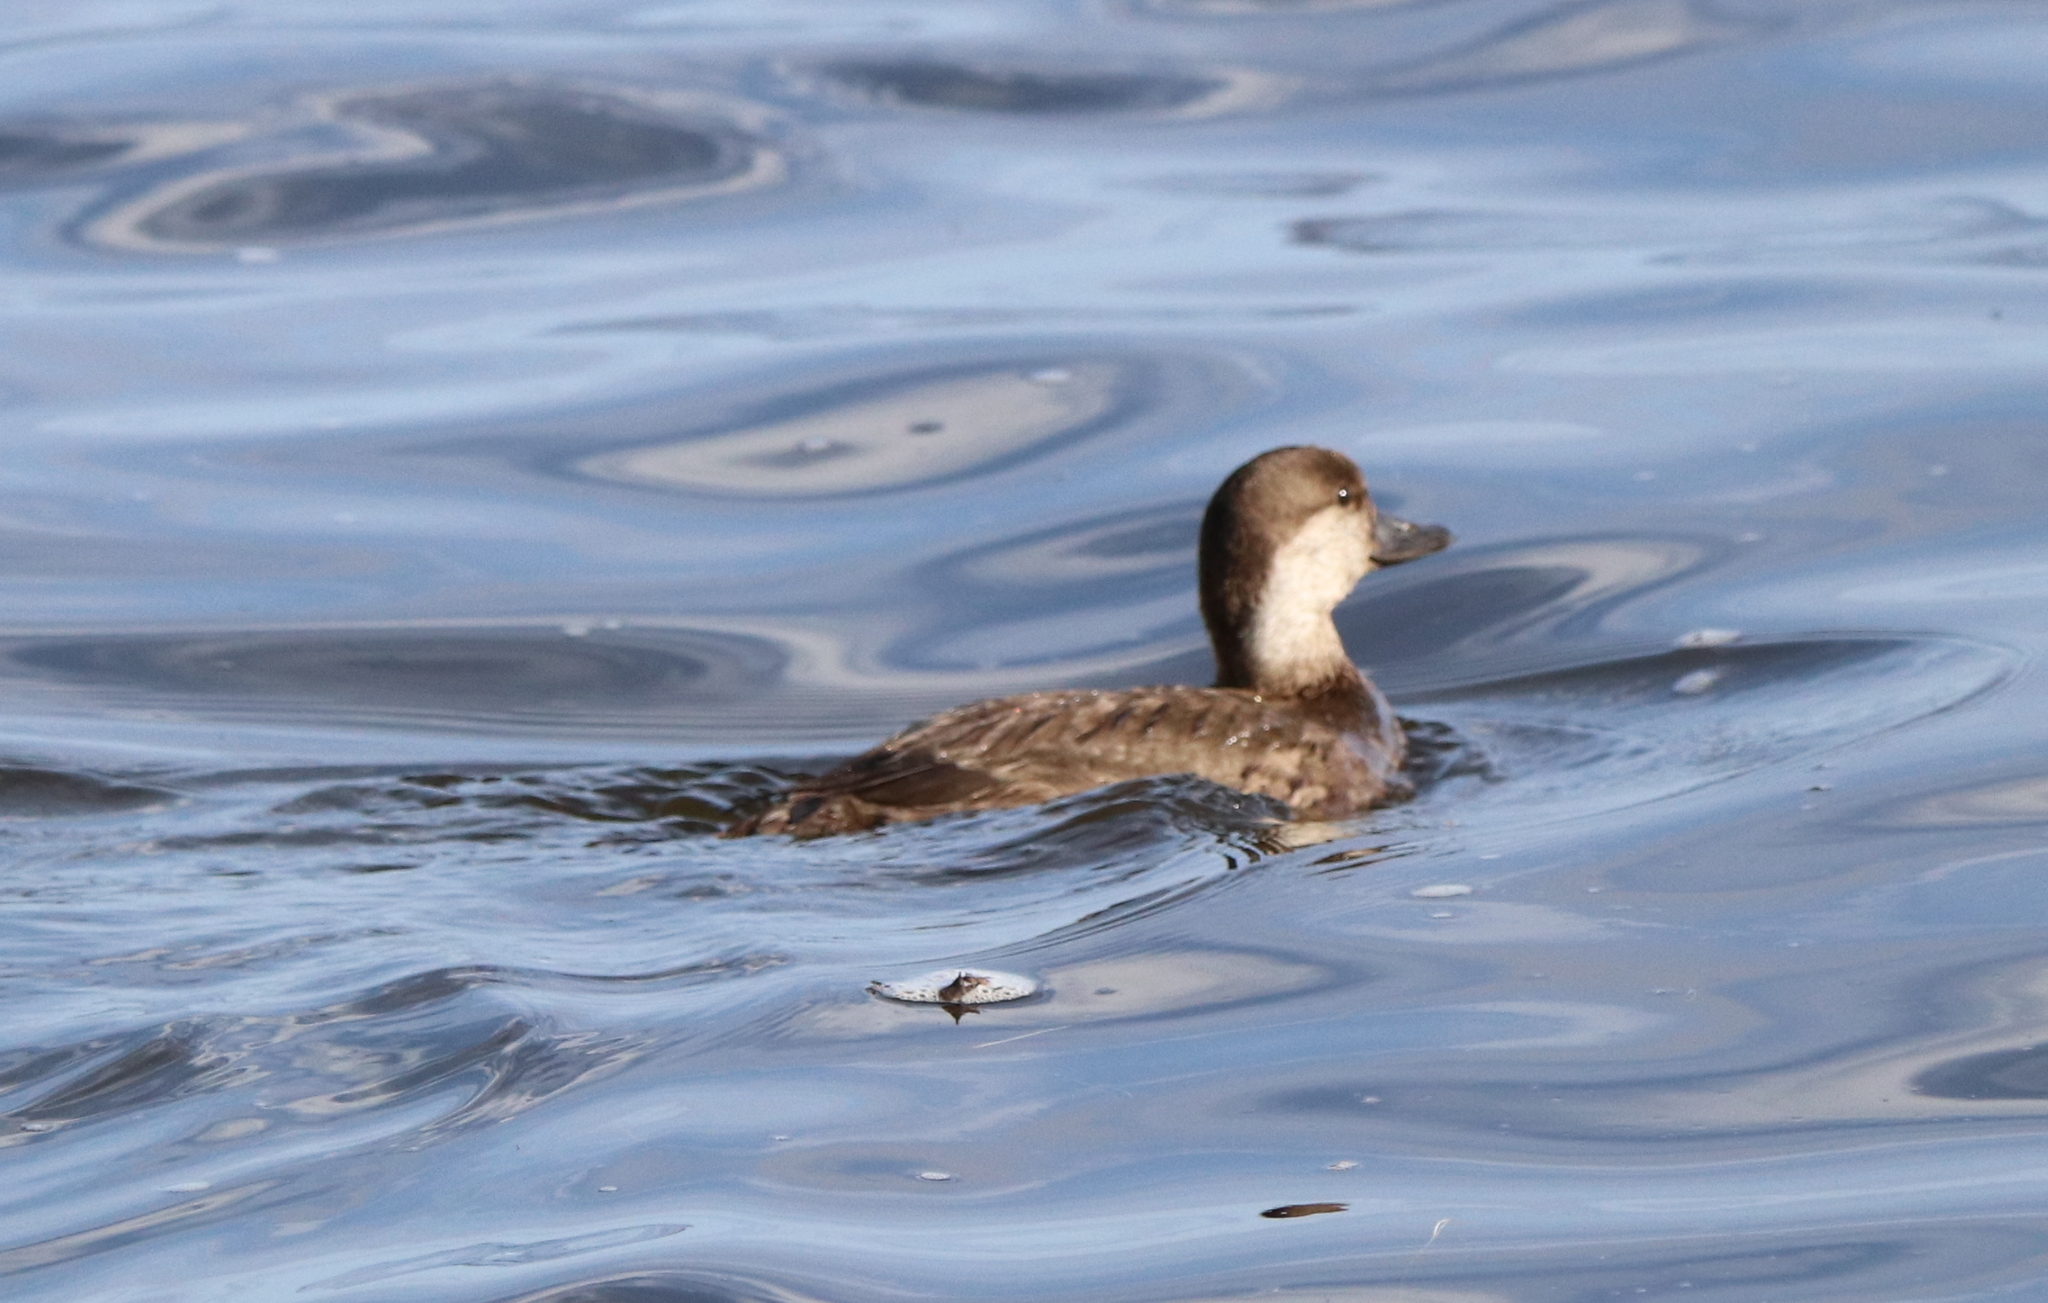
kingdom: Animalia
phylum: Chordata
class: Aves
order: Anseriformes
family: Anatidae
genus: Melanitta
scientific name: Melanitta americana
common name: Black scoter
